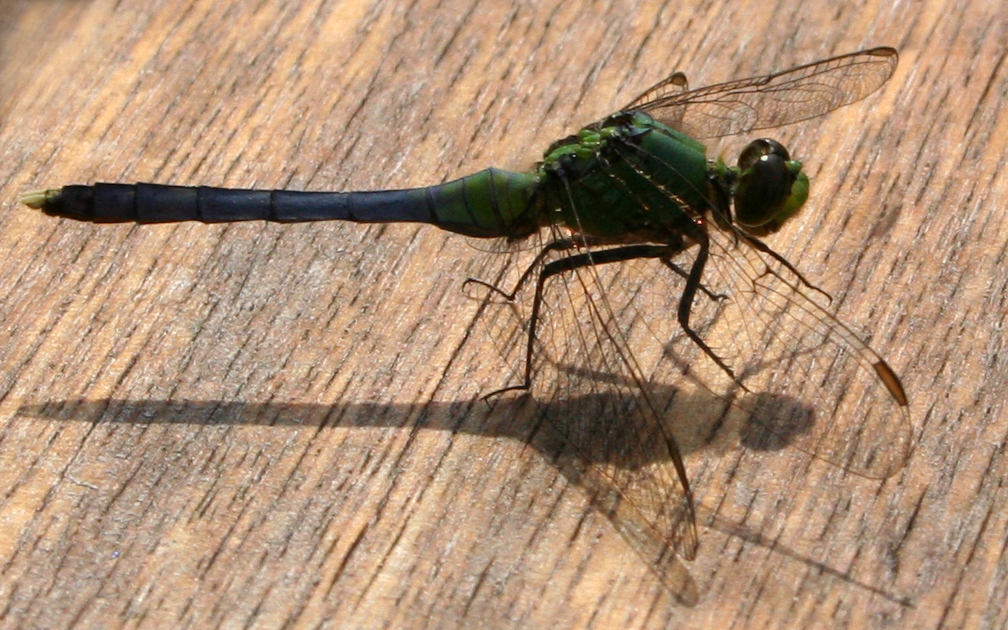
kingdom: Animalia
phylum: Arthropoda
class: Insecta
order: Odonata
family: Libellulidae
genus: Erythemis
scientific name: Erythemis simplicicollis
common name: Eastern pondhawk
